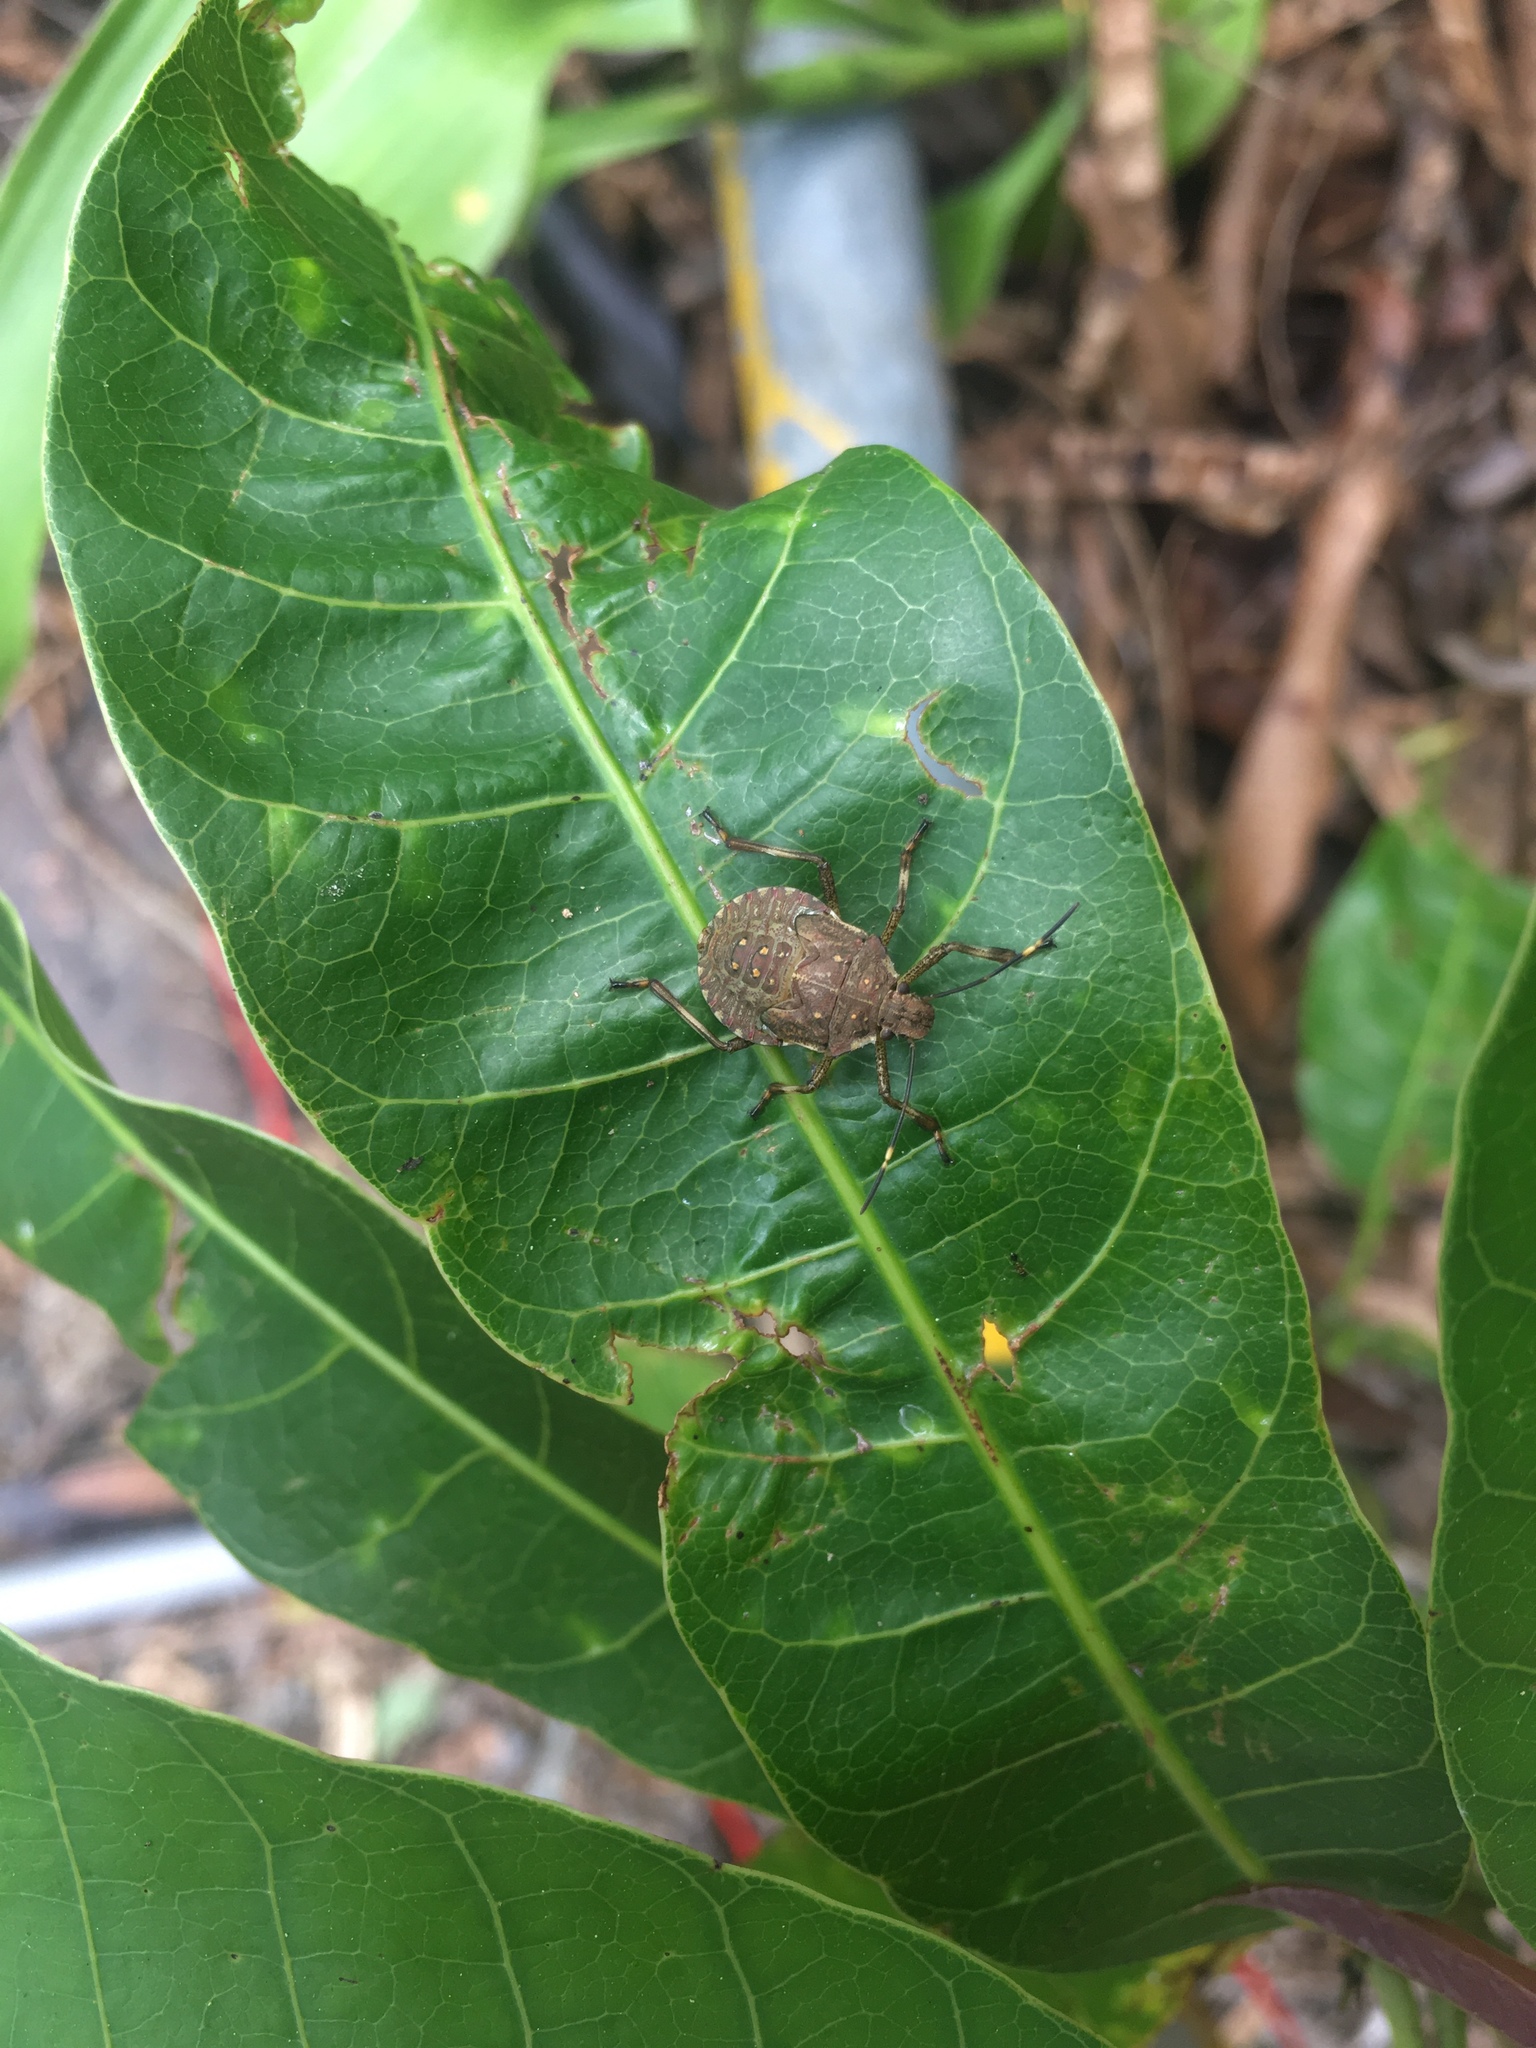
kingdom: Animalia
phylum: Arthropoda
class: Insecta
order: Hemiptera
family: Pentatomidae
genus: Halyomorpha
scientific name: Halyomorpha halys
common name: Brown marmorated stink bug
